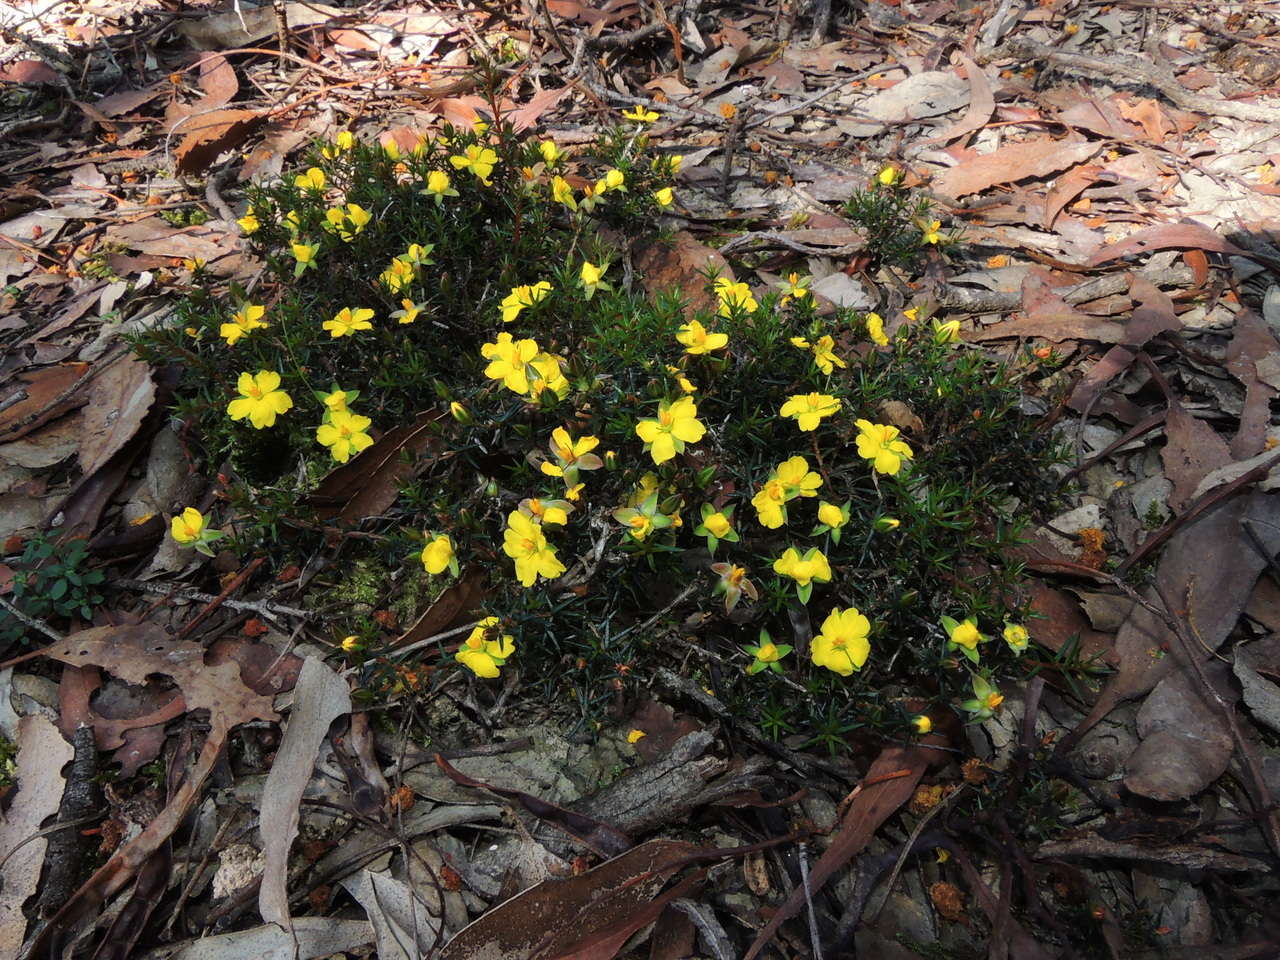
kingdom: Plantae
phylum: Tracheophyta
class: Magnoliopsida
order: Dilleniales
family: Dilleniaceae
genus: Hibbertia
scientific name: Hibbertia exutiacies
